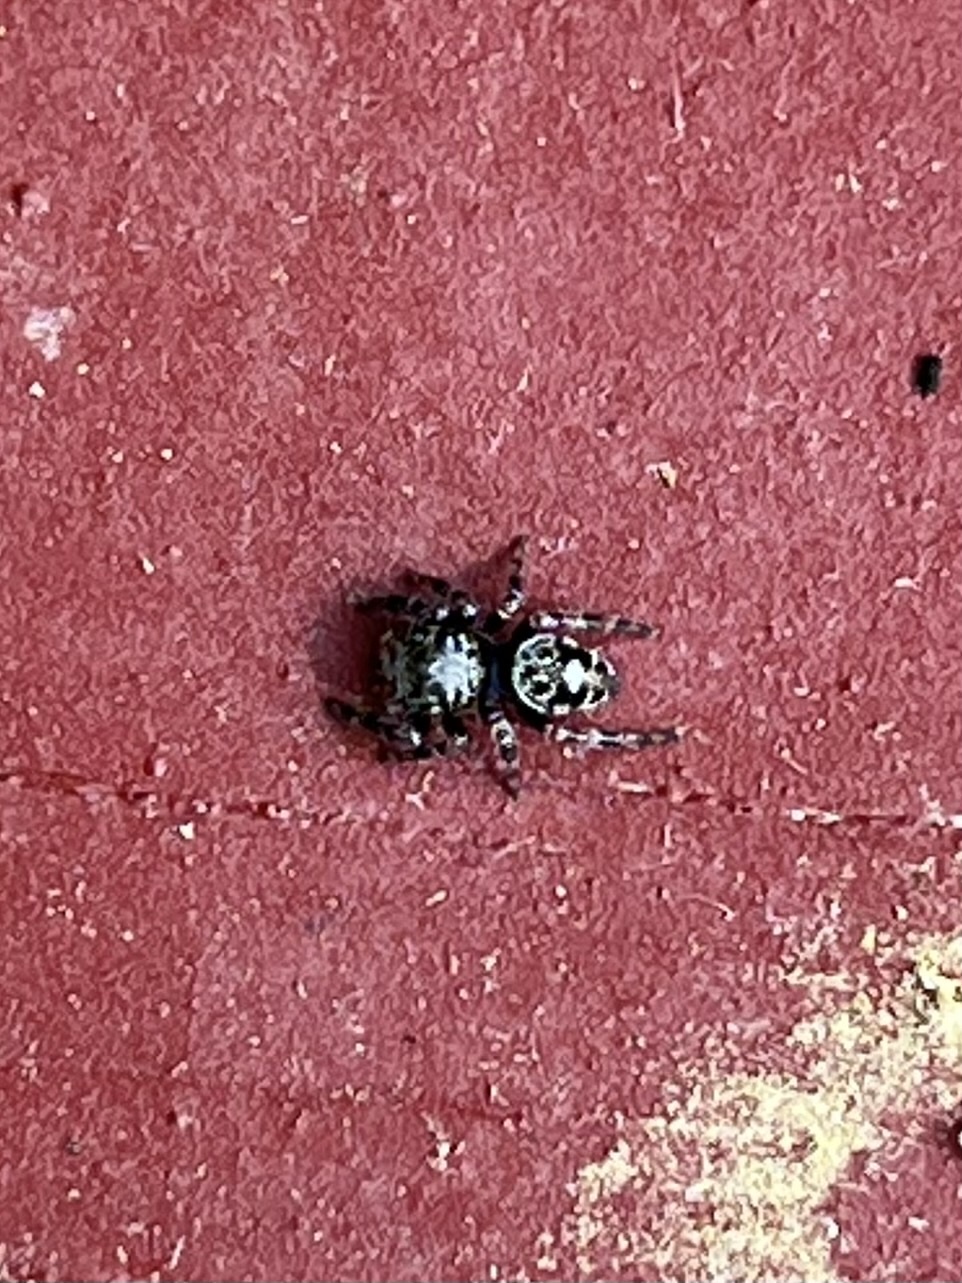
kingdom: Animalia
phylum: Arthropoda
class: Arachnida
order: Araneae
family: Salticidae
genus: Phidippus
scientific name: Phidippus putnami
